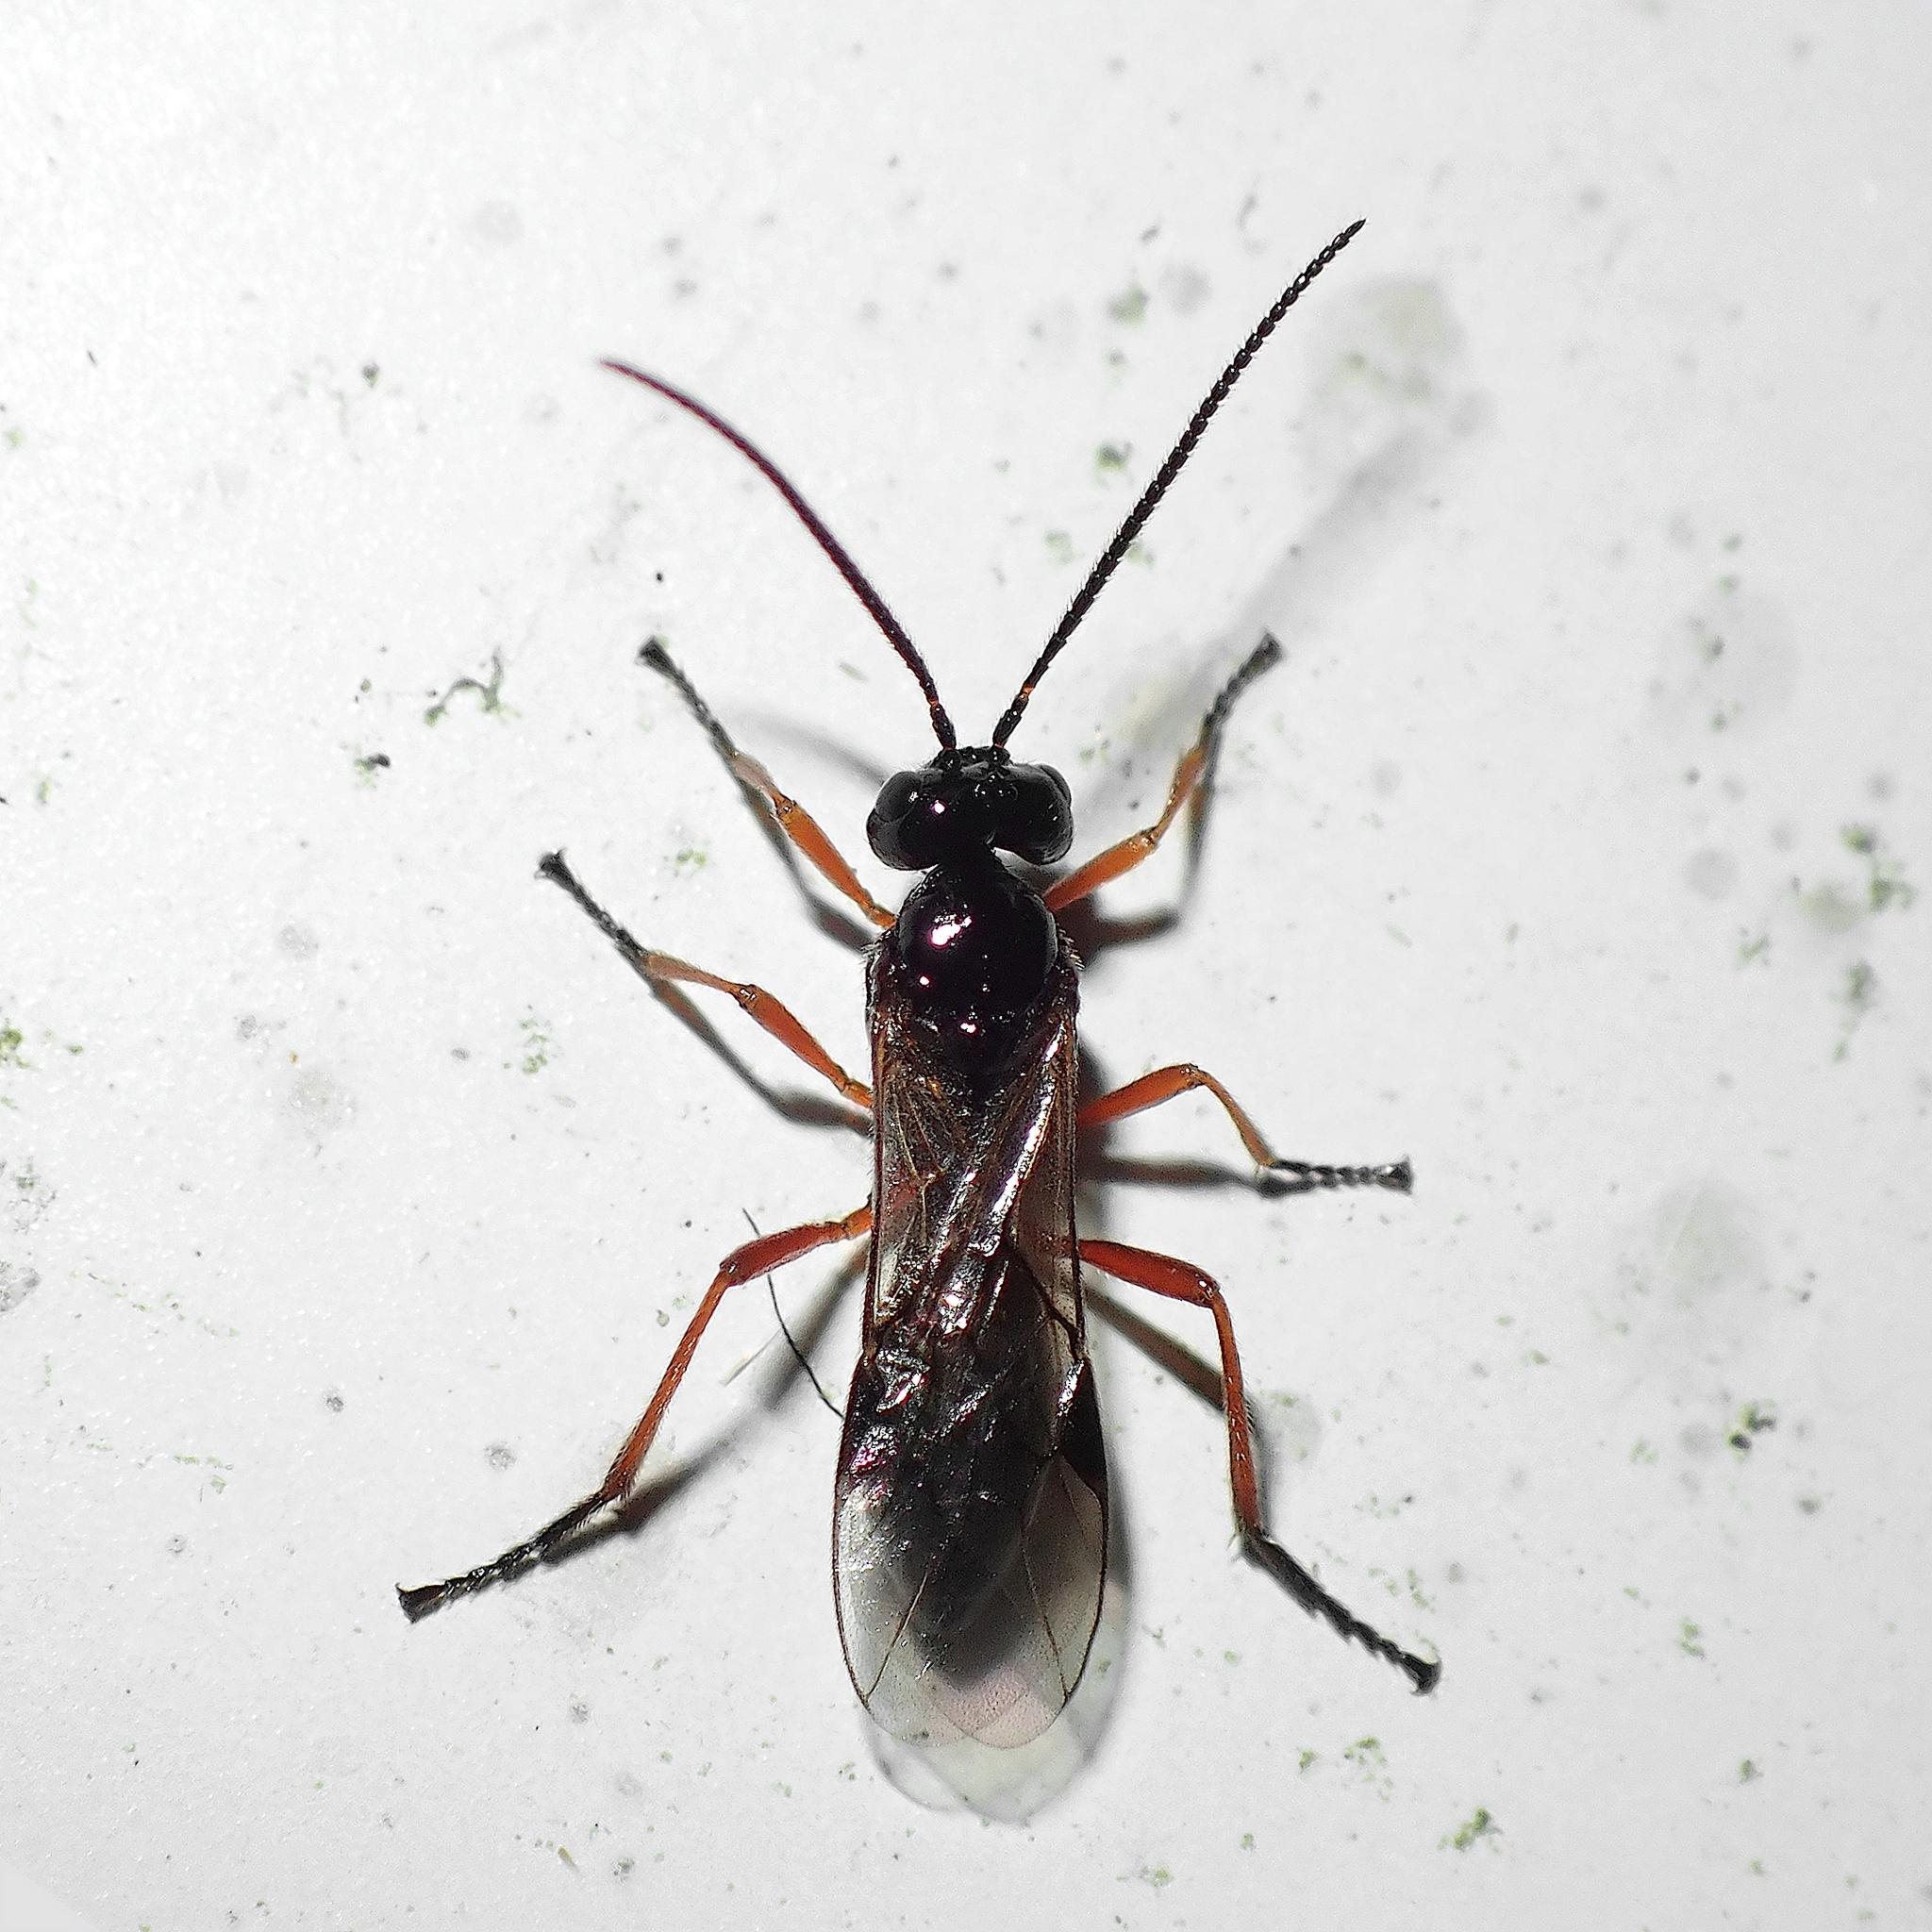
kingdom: Animalia
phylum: Arthropoda
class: Insecta
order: Hymenoptera
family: Braconidae
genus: Alysia
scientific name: Alysia manducator
